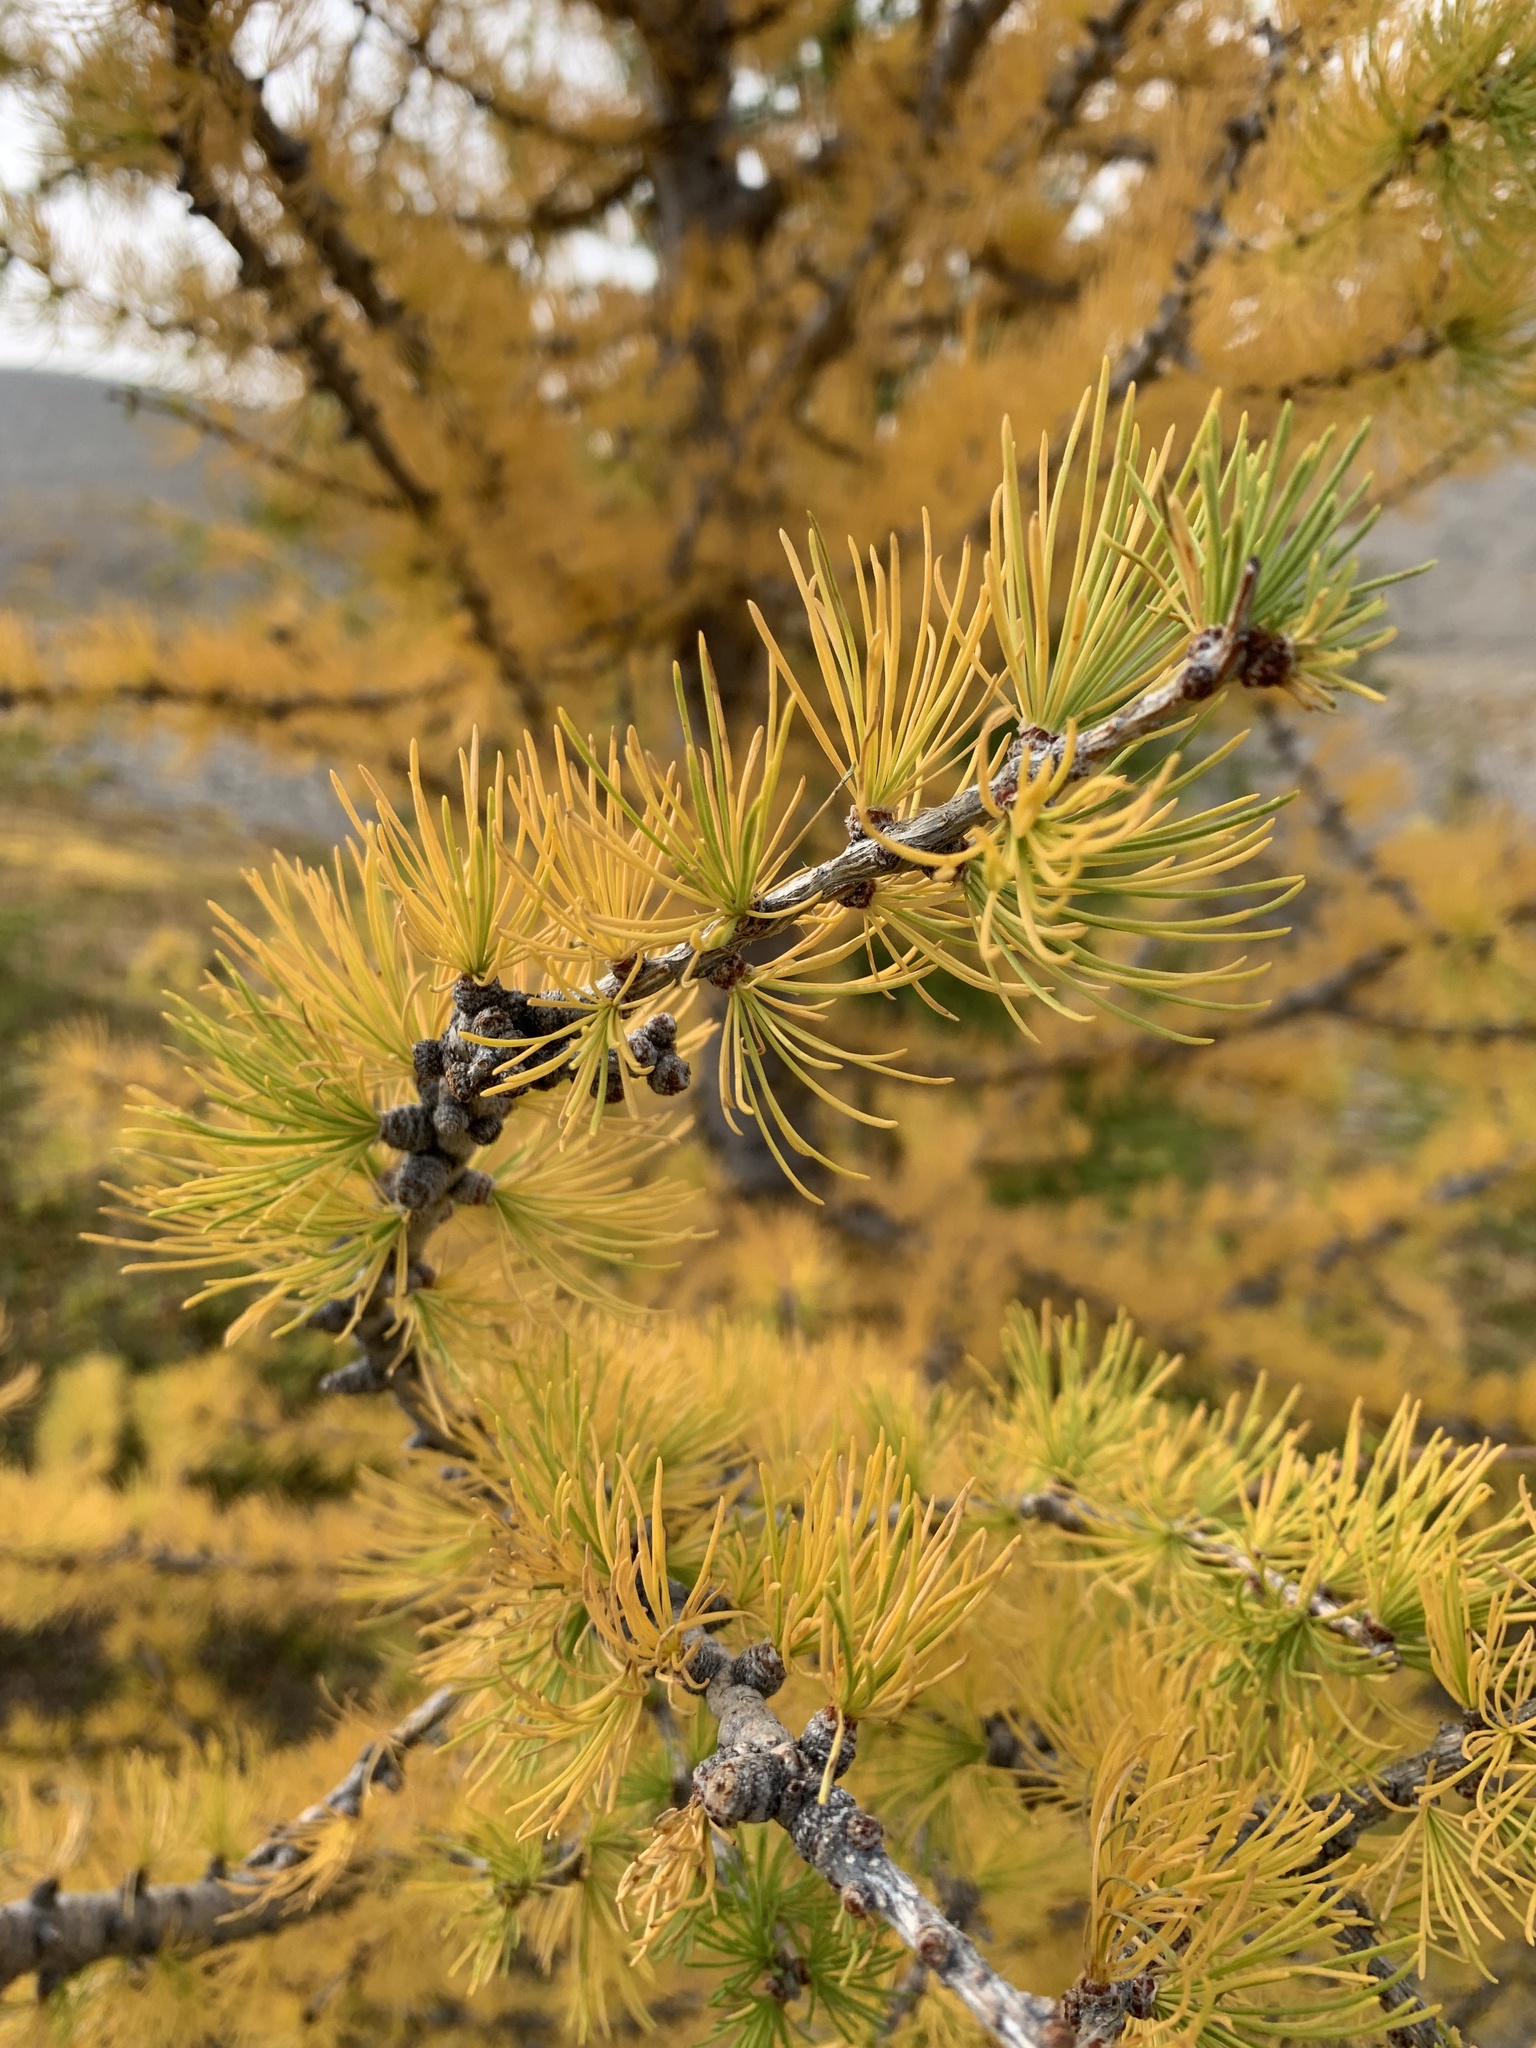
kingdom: Plantae
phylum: Tracheophyta
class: Pinopsida
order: Pinales
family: Pinaceae
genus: Larix
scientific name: Larix lyallii
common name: Alpine larch
